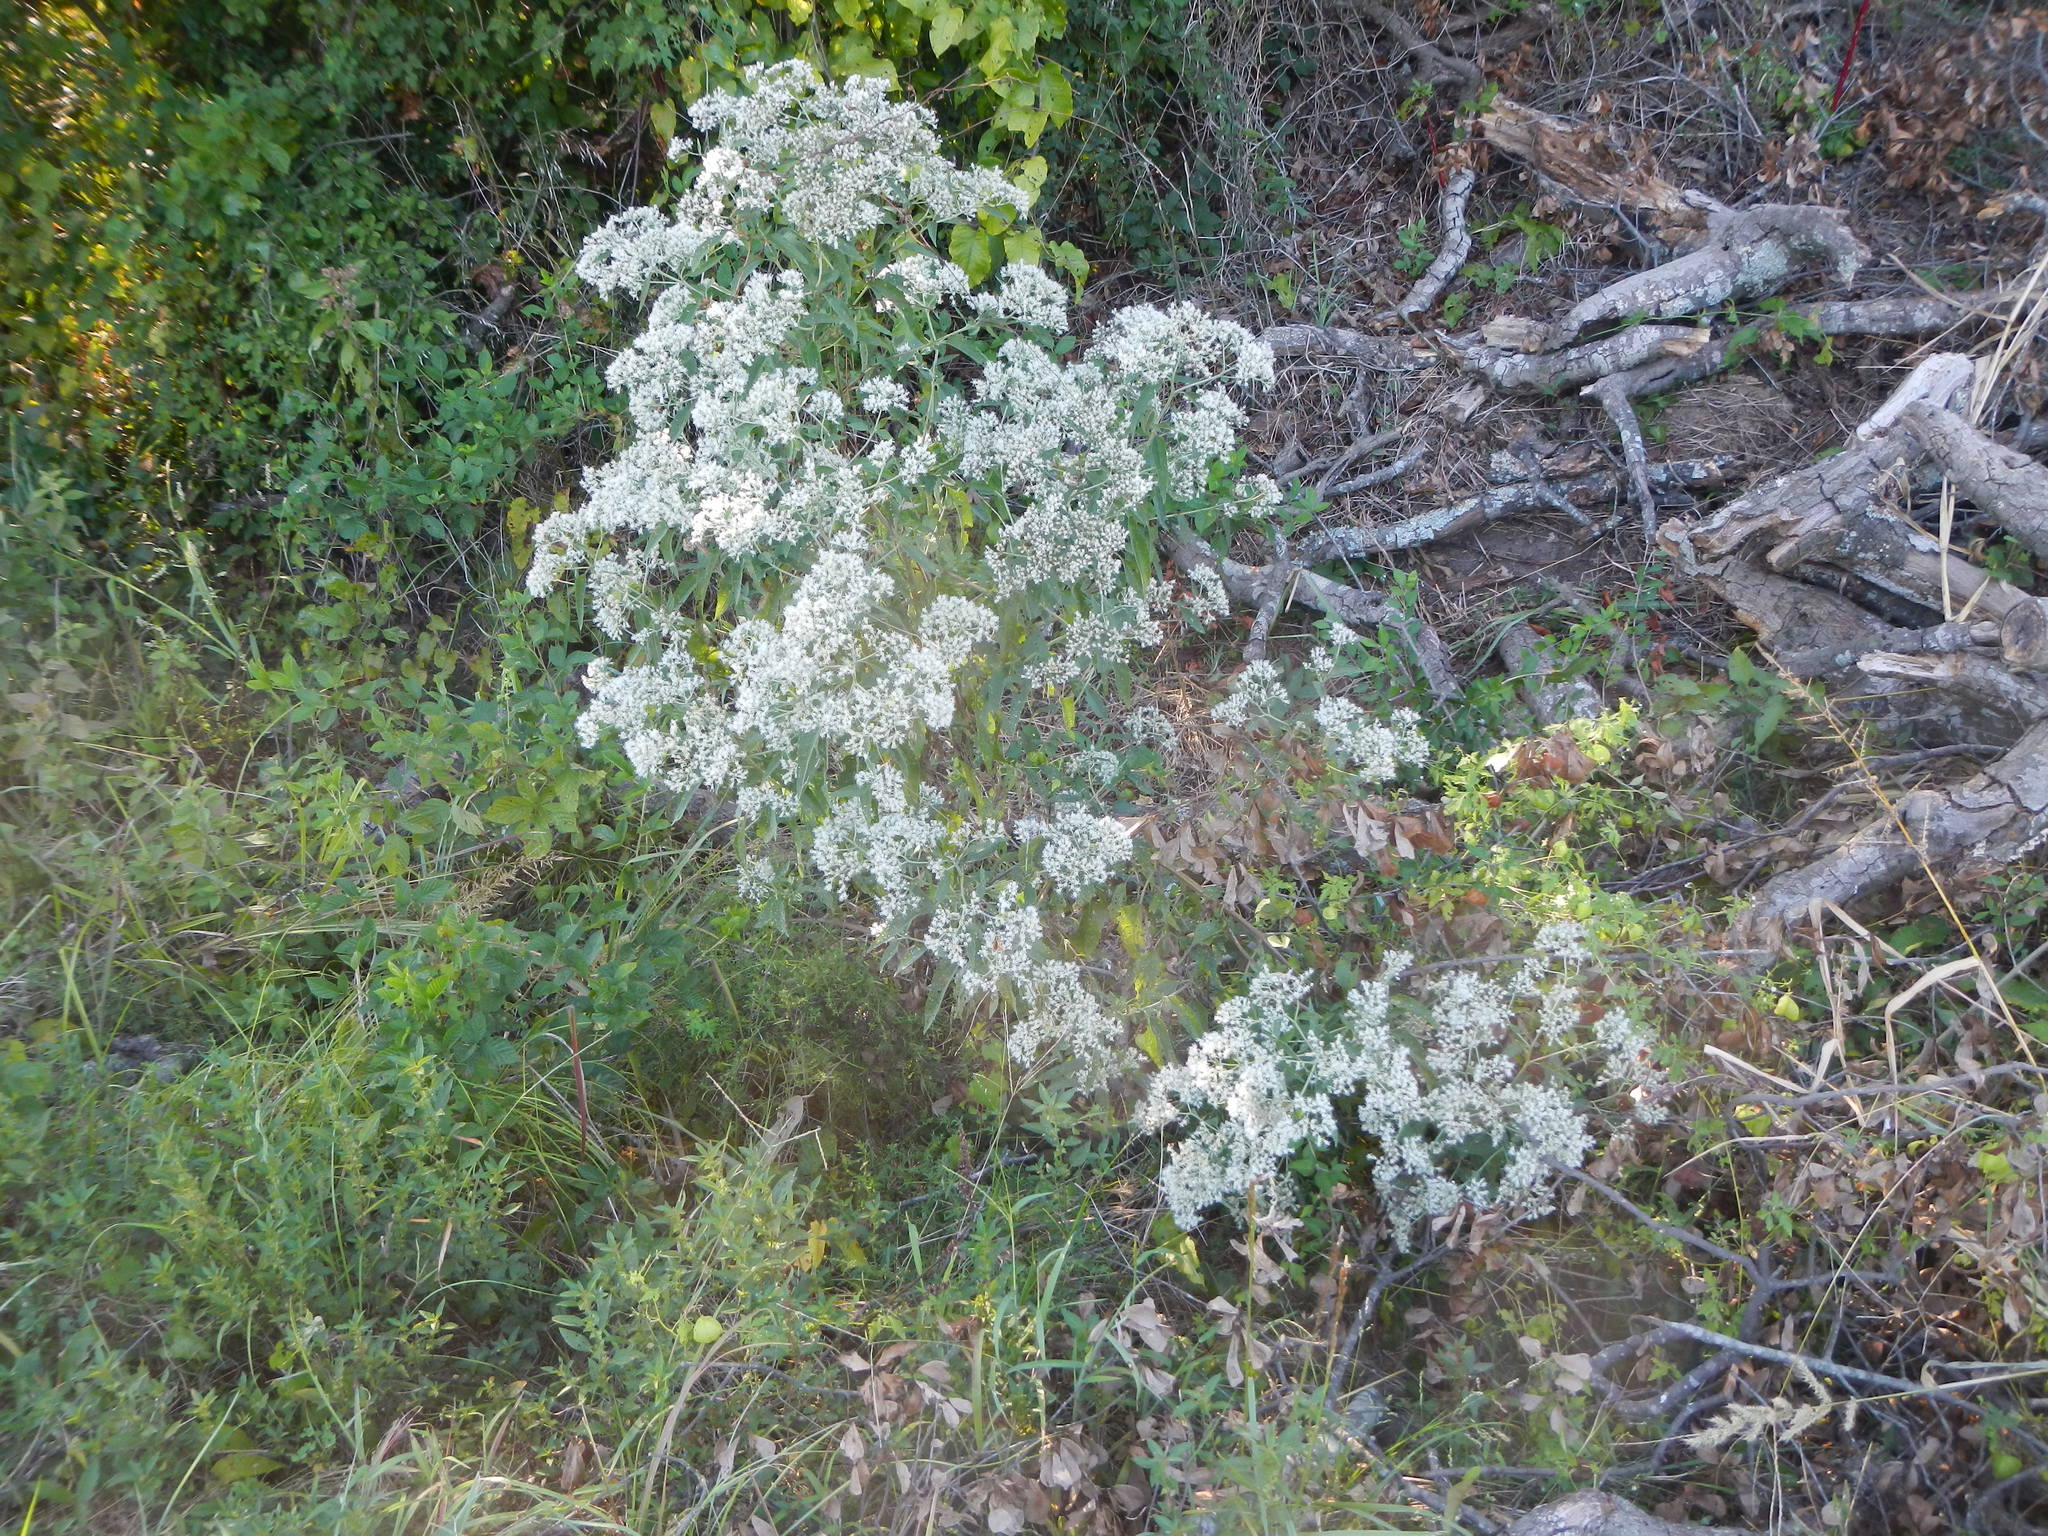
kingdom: Plantae
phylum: Tracheophyta
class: Magnoliopsida
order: Asterales
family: Asteraceae
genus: Eupatorium
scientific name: Eupatorium serotinum
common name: Late boneset
